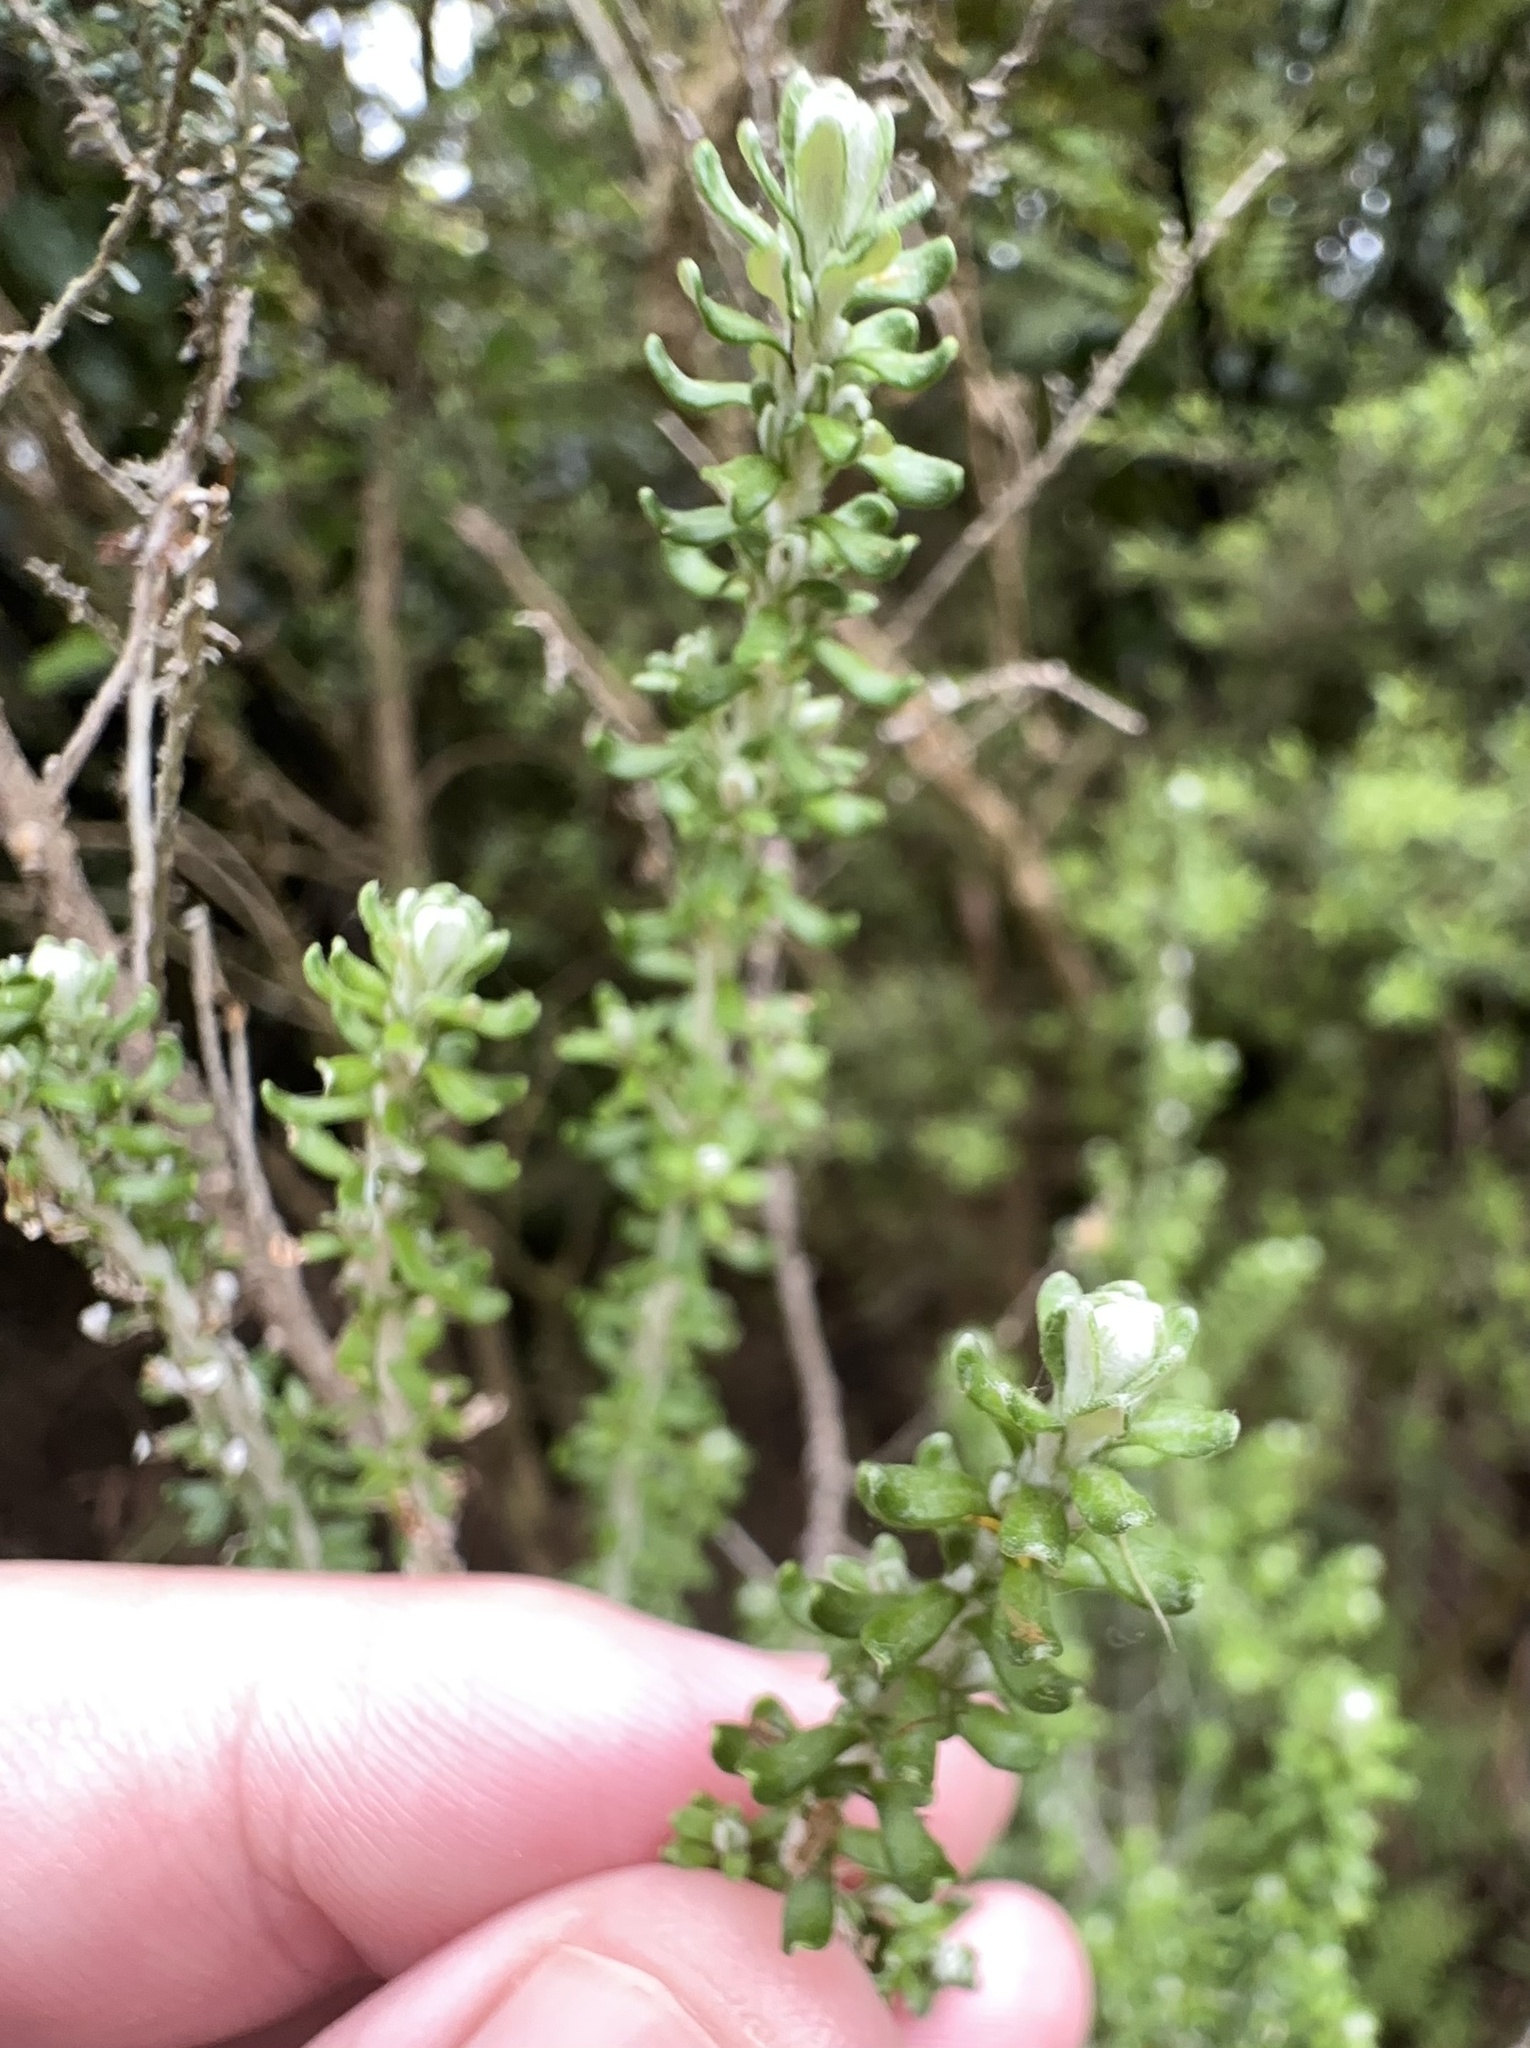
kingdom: Plantae
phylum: Tracheophyta
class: Magnoliopsida
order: Asterales
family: Asteraceae
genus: Ozothamnus
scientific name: Ozothamnus leptophyllus
